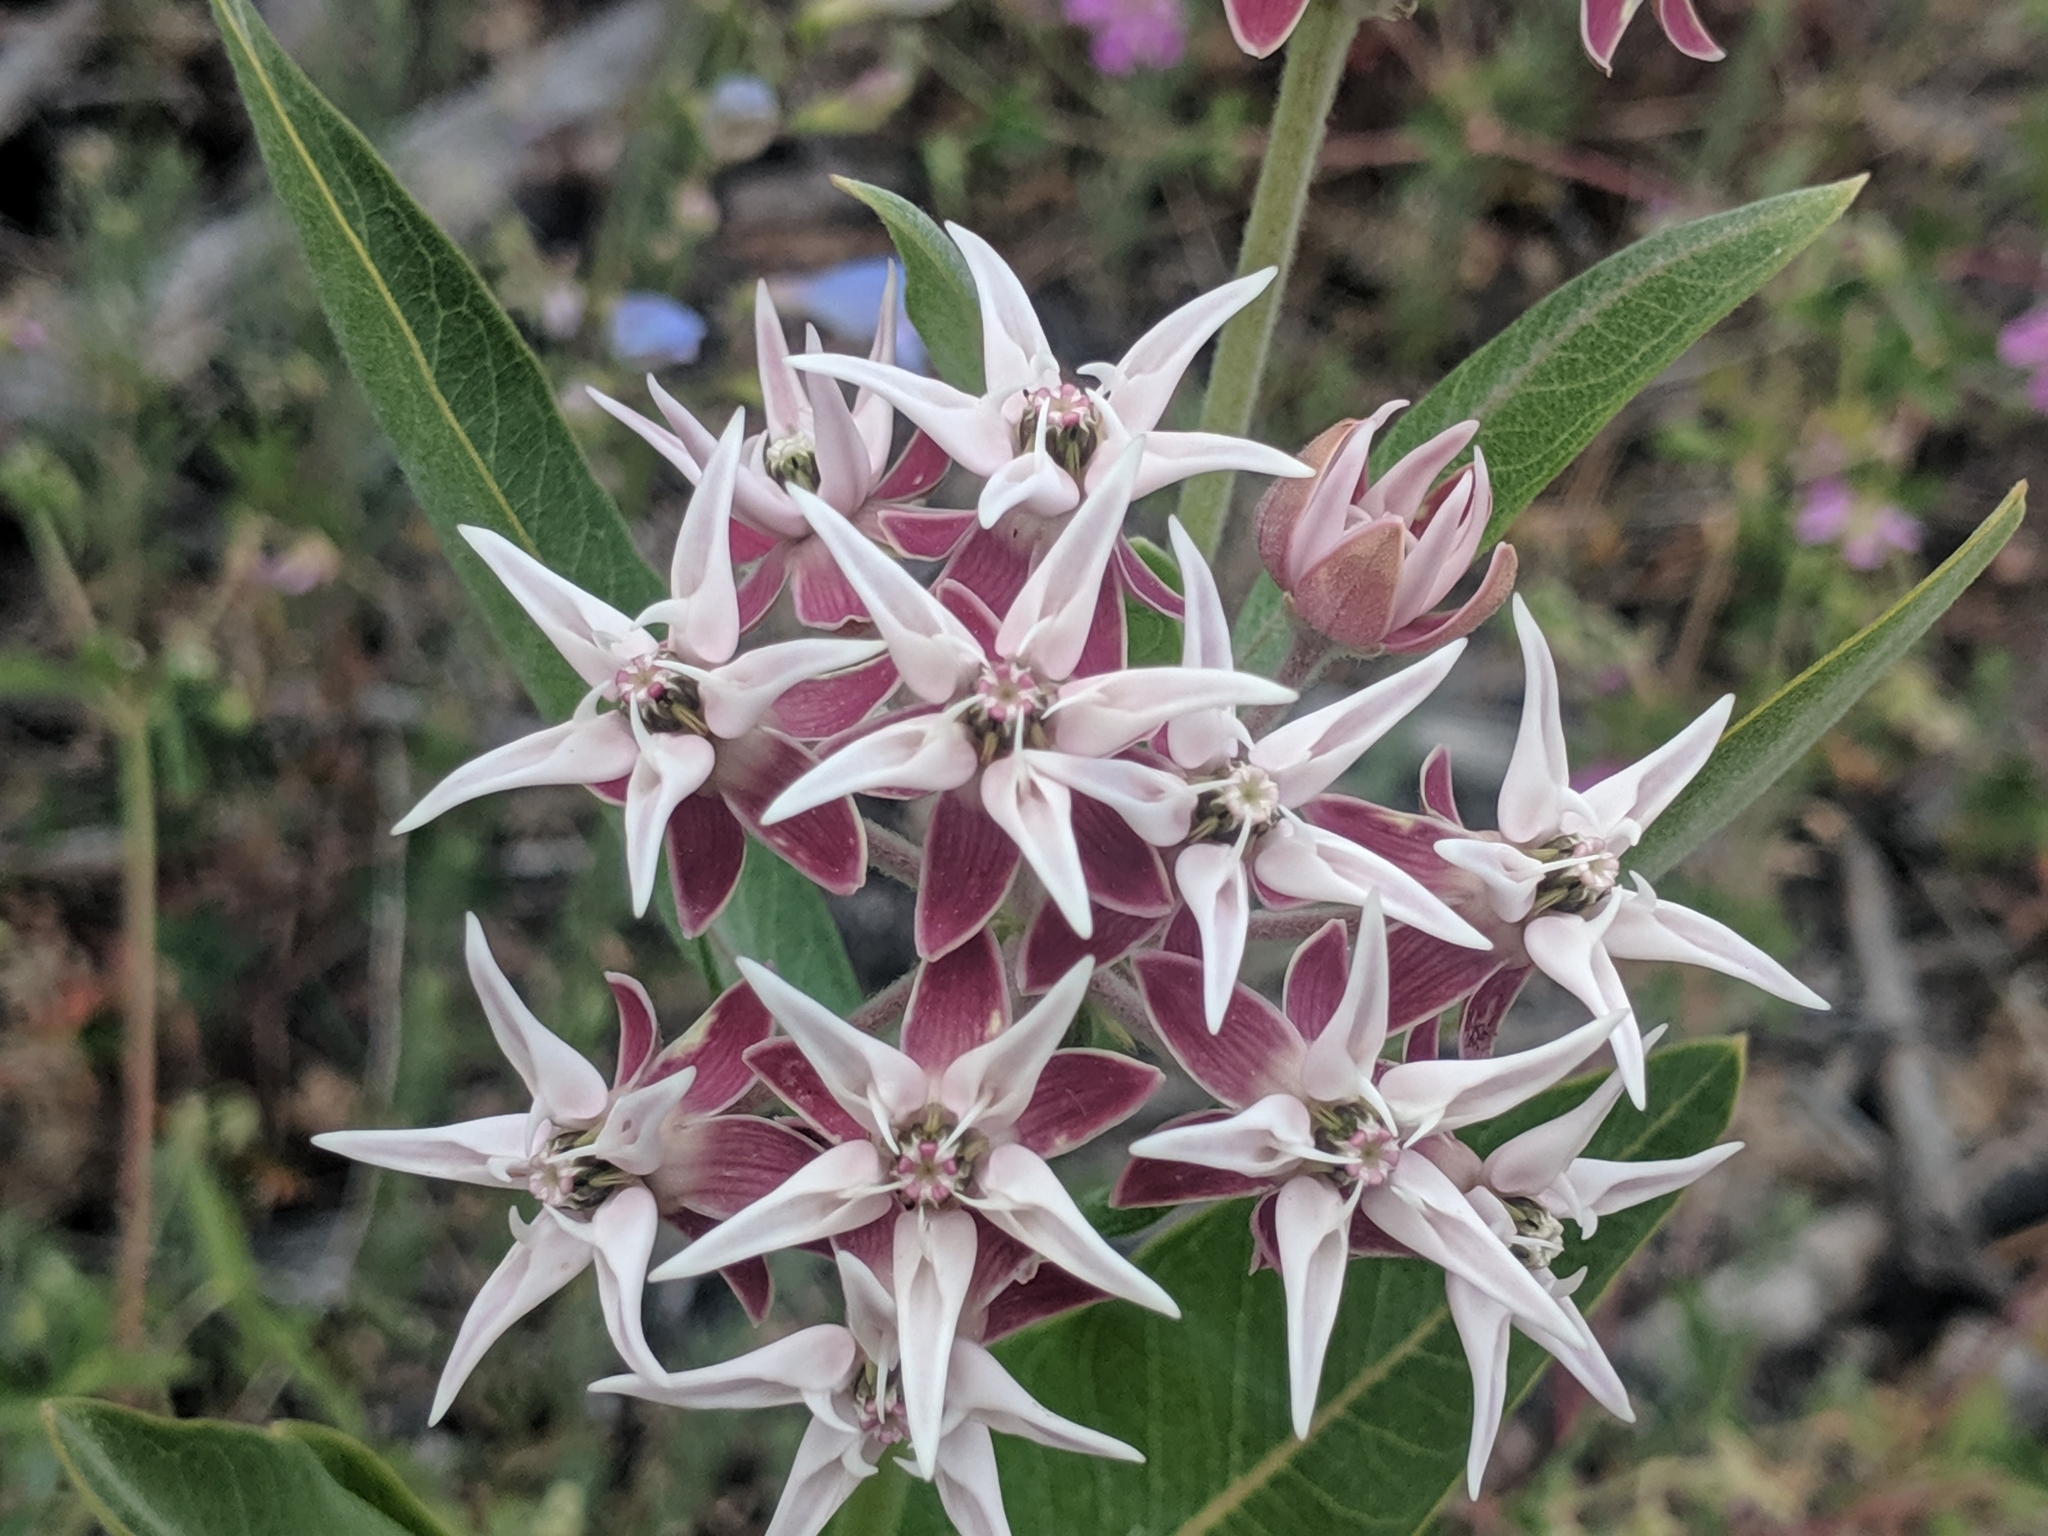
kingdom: Plantae
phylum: Tracheophyta
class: Magnoliopsida
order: Gentianales
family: Apocynaceae
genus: Asclepias
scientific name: Asclepias speciosa
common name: Showy milkweed
